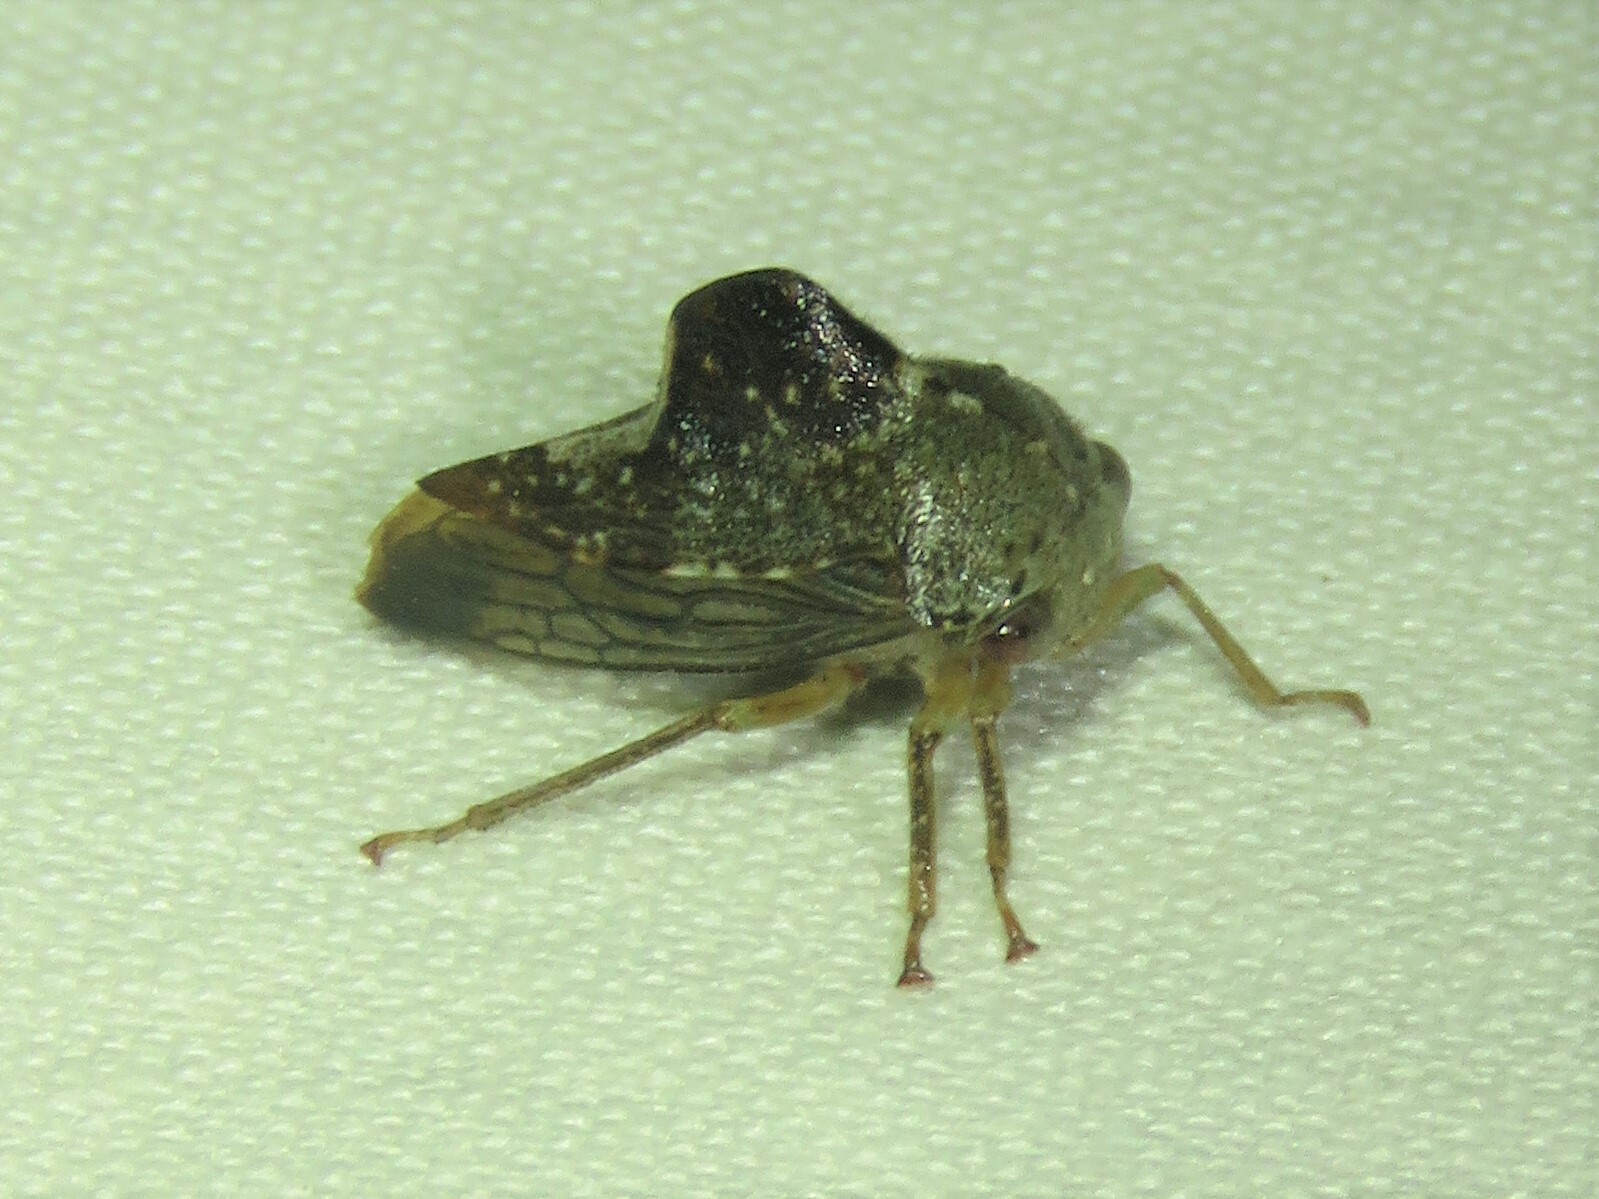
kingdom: Animalia
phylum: Arthropoda
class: Insecta
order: Hemiptera
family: Membracidae
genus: Telamona
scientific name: Telamona decorata
